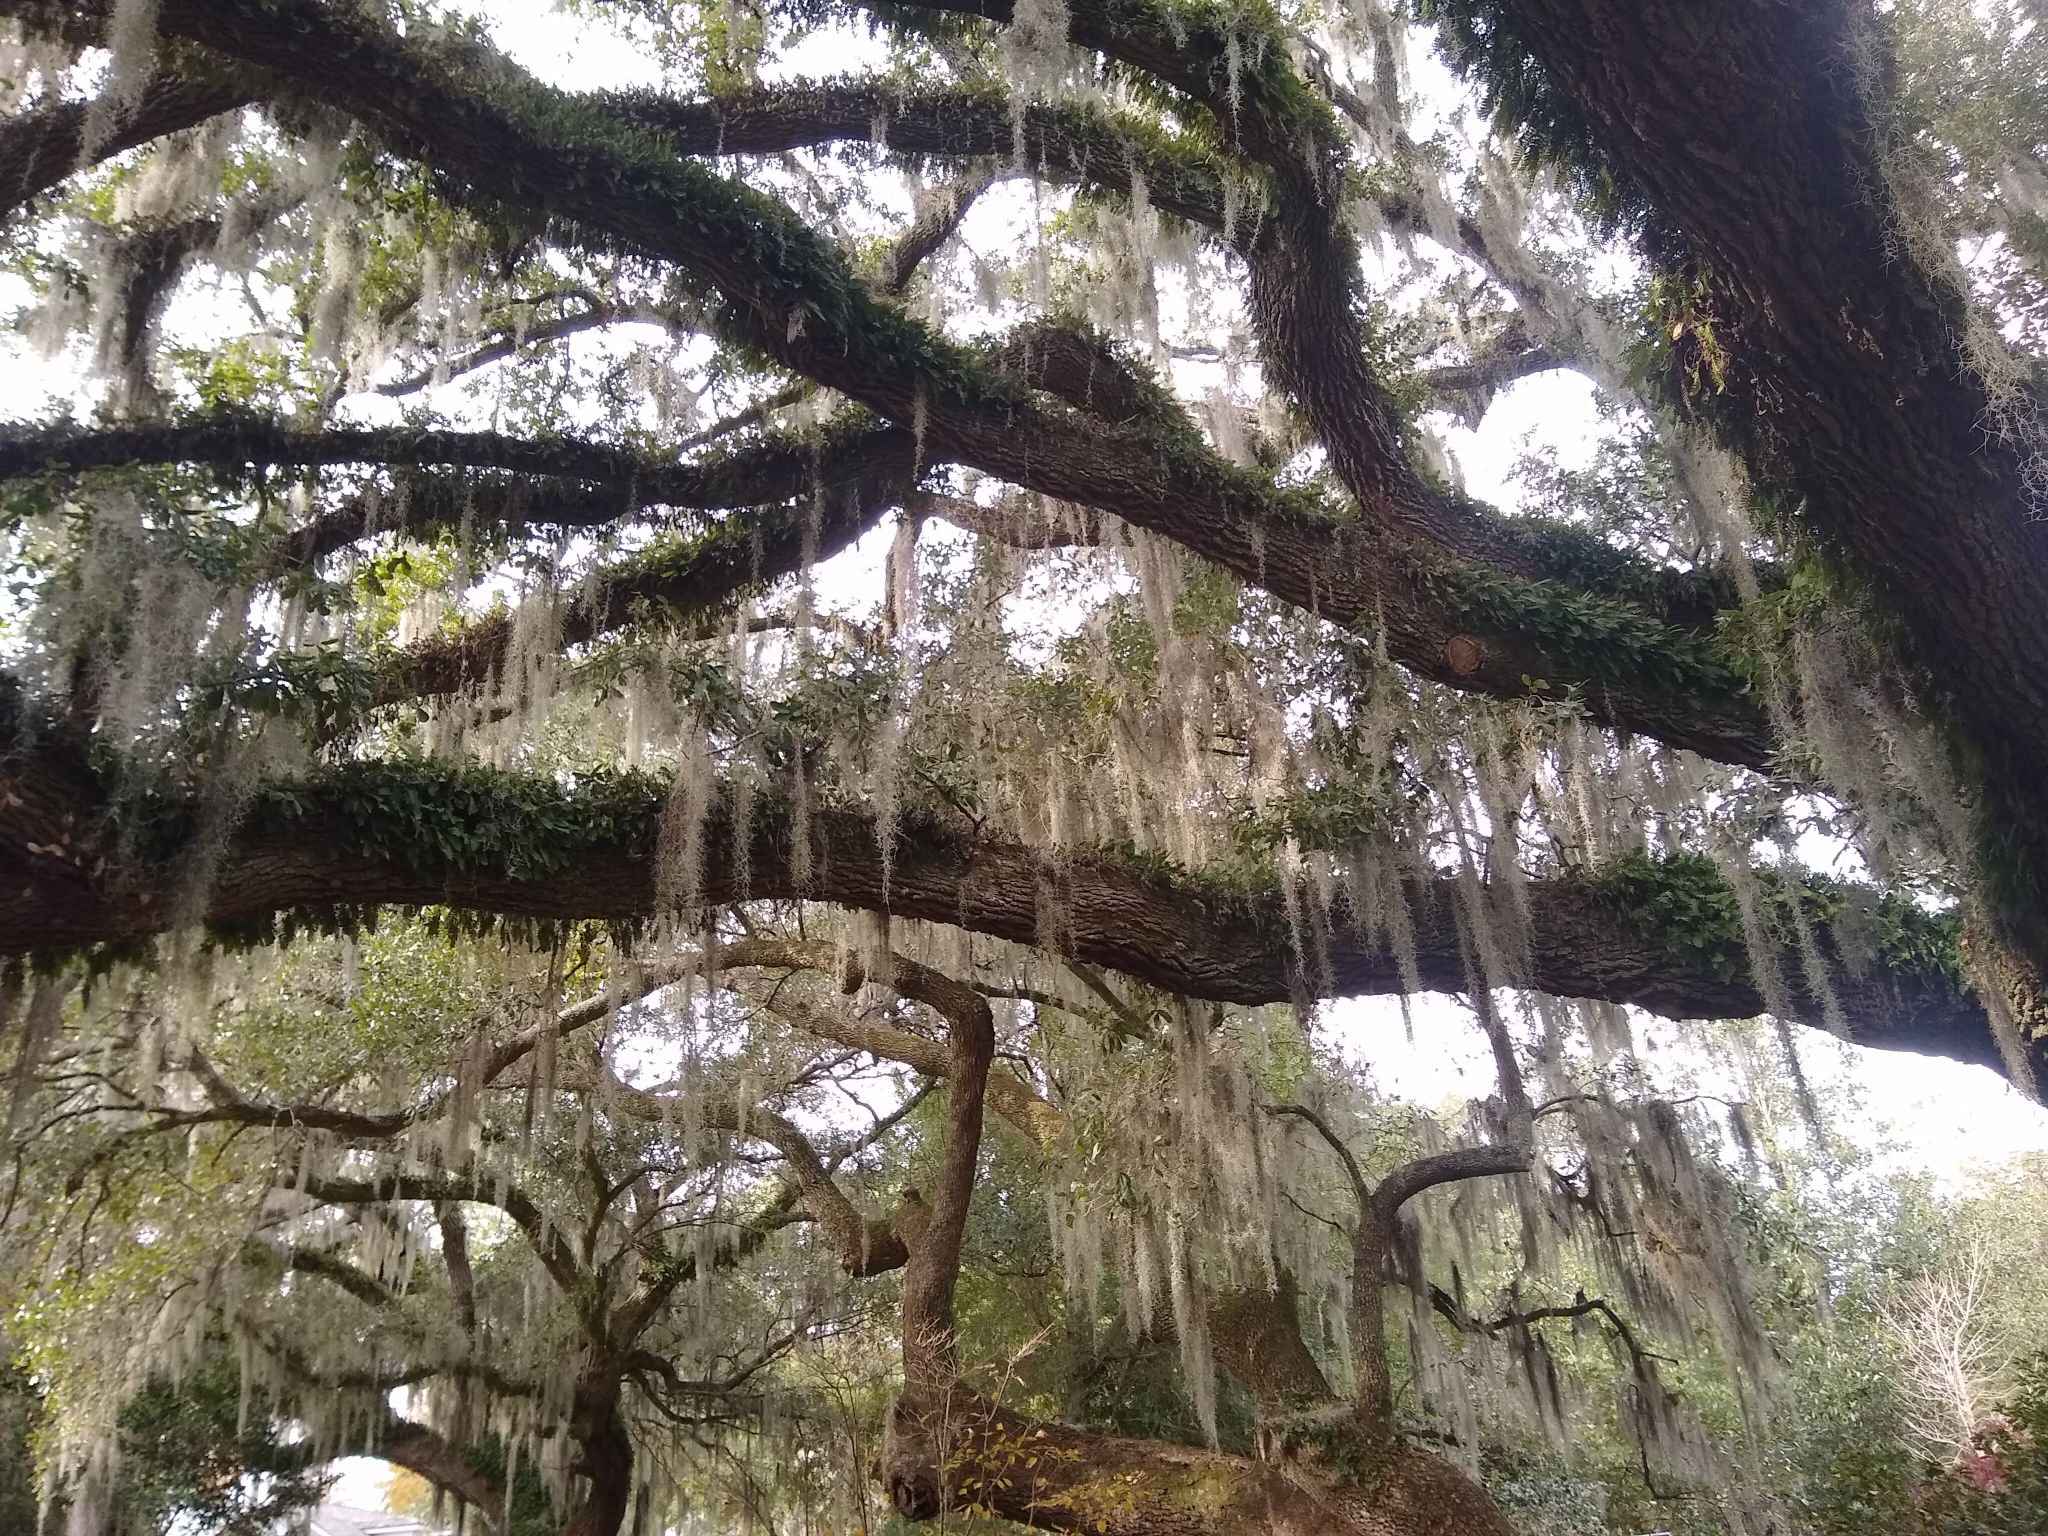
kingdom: Plantae
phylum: Tracheophyta
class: Magnoliopsida
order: Fagales
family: Fagaceae
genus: Quercus
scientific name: Quercus virginiana
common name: Southern live oak
